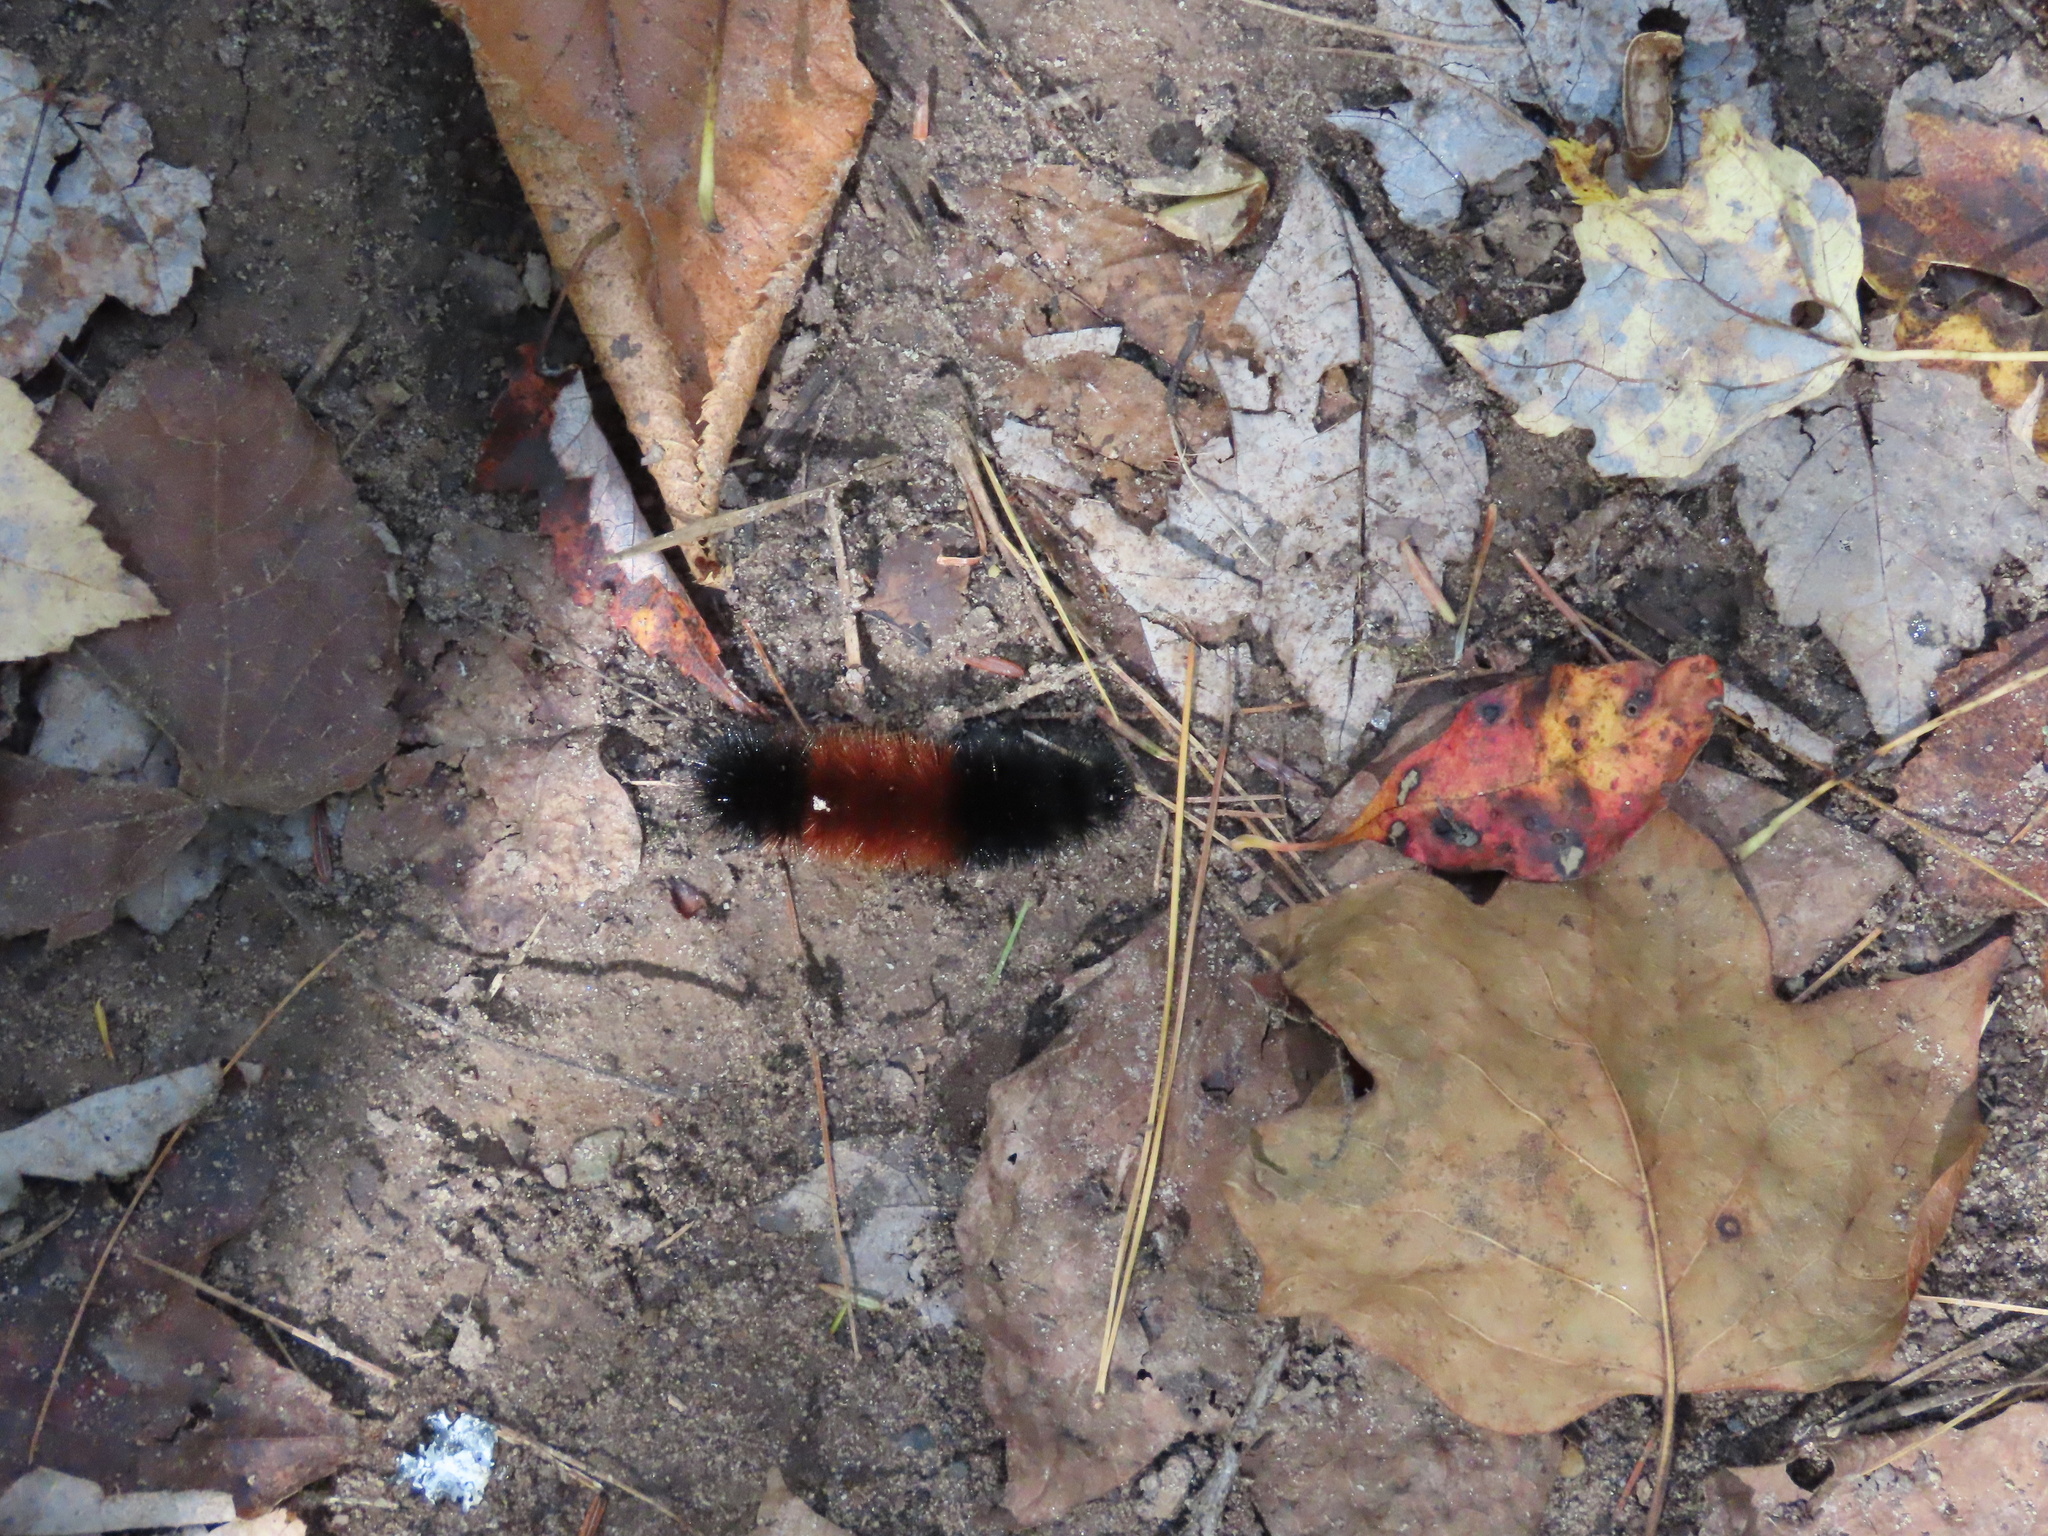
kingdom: Animalia
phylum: Arthropoda
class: Insecta
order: Lepidoptera
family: Erebidae
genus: Pyrrharctia
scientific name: Pyrrharctia isabella
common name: Isabella tiger moth
